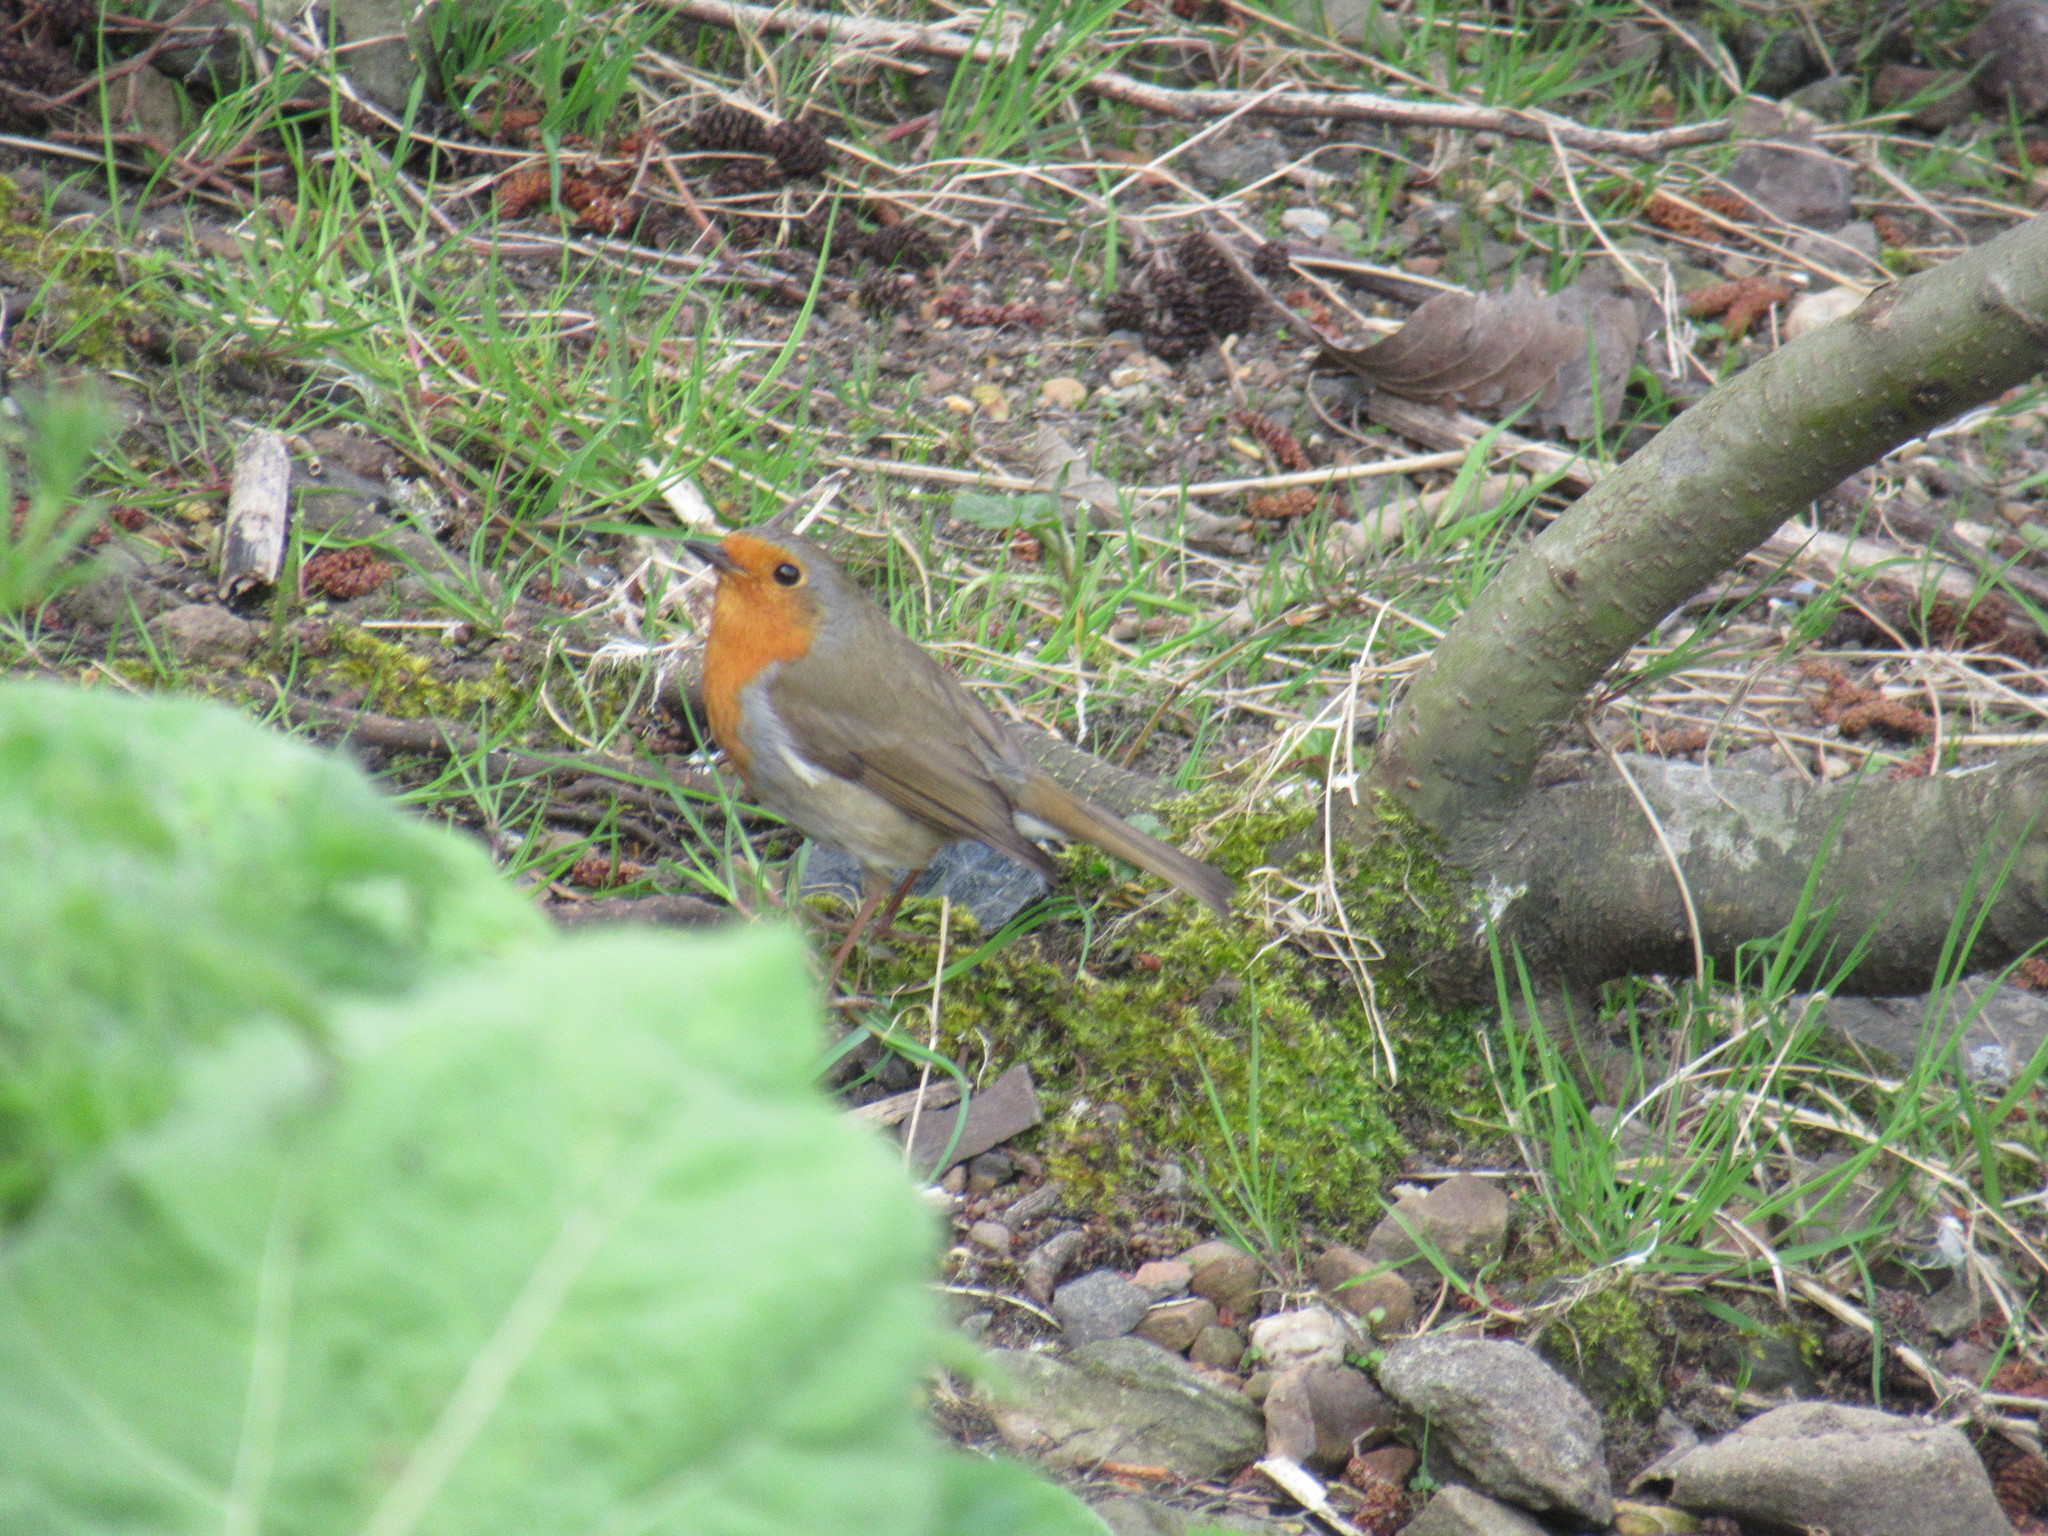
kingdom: Animalia
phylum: Chordata
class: Aves
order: Passeriformes
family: Muscicapidae
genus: Erithacus
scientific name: Erithacus rubecula
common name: European robin
